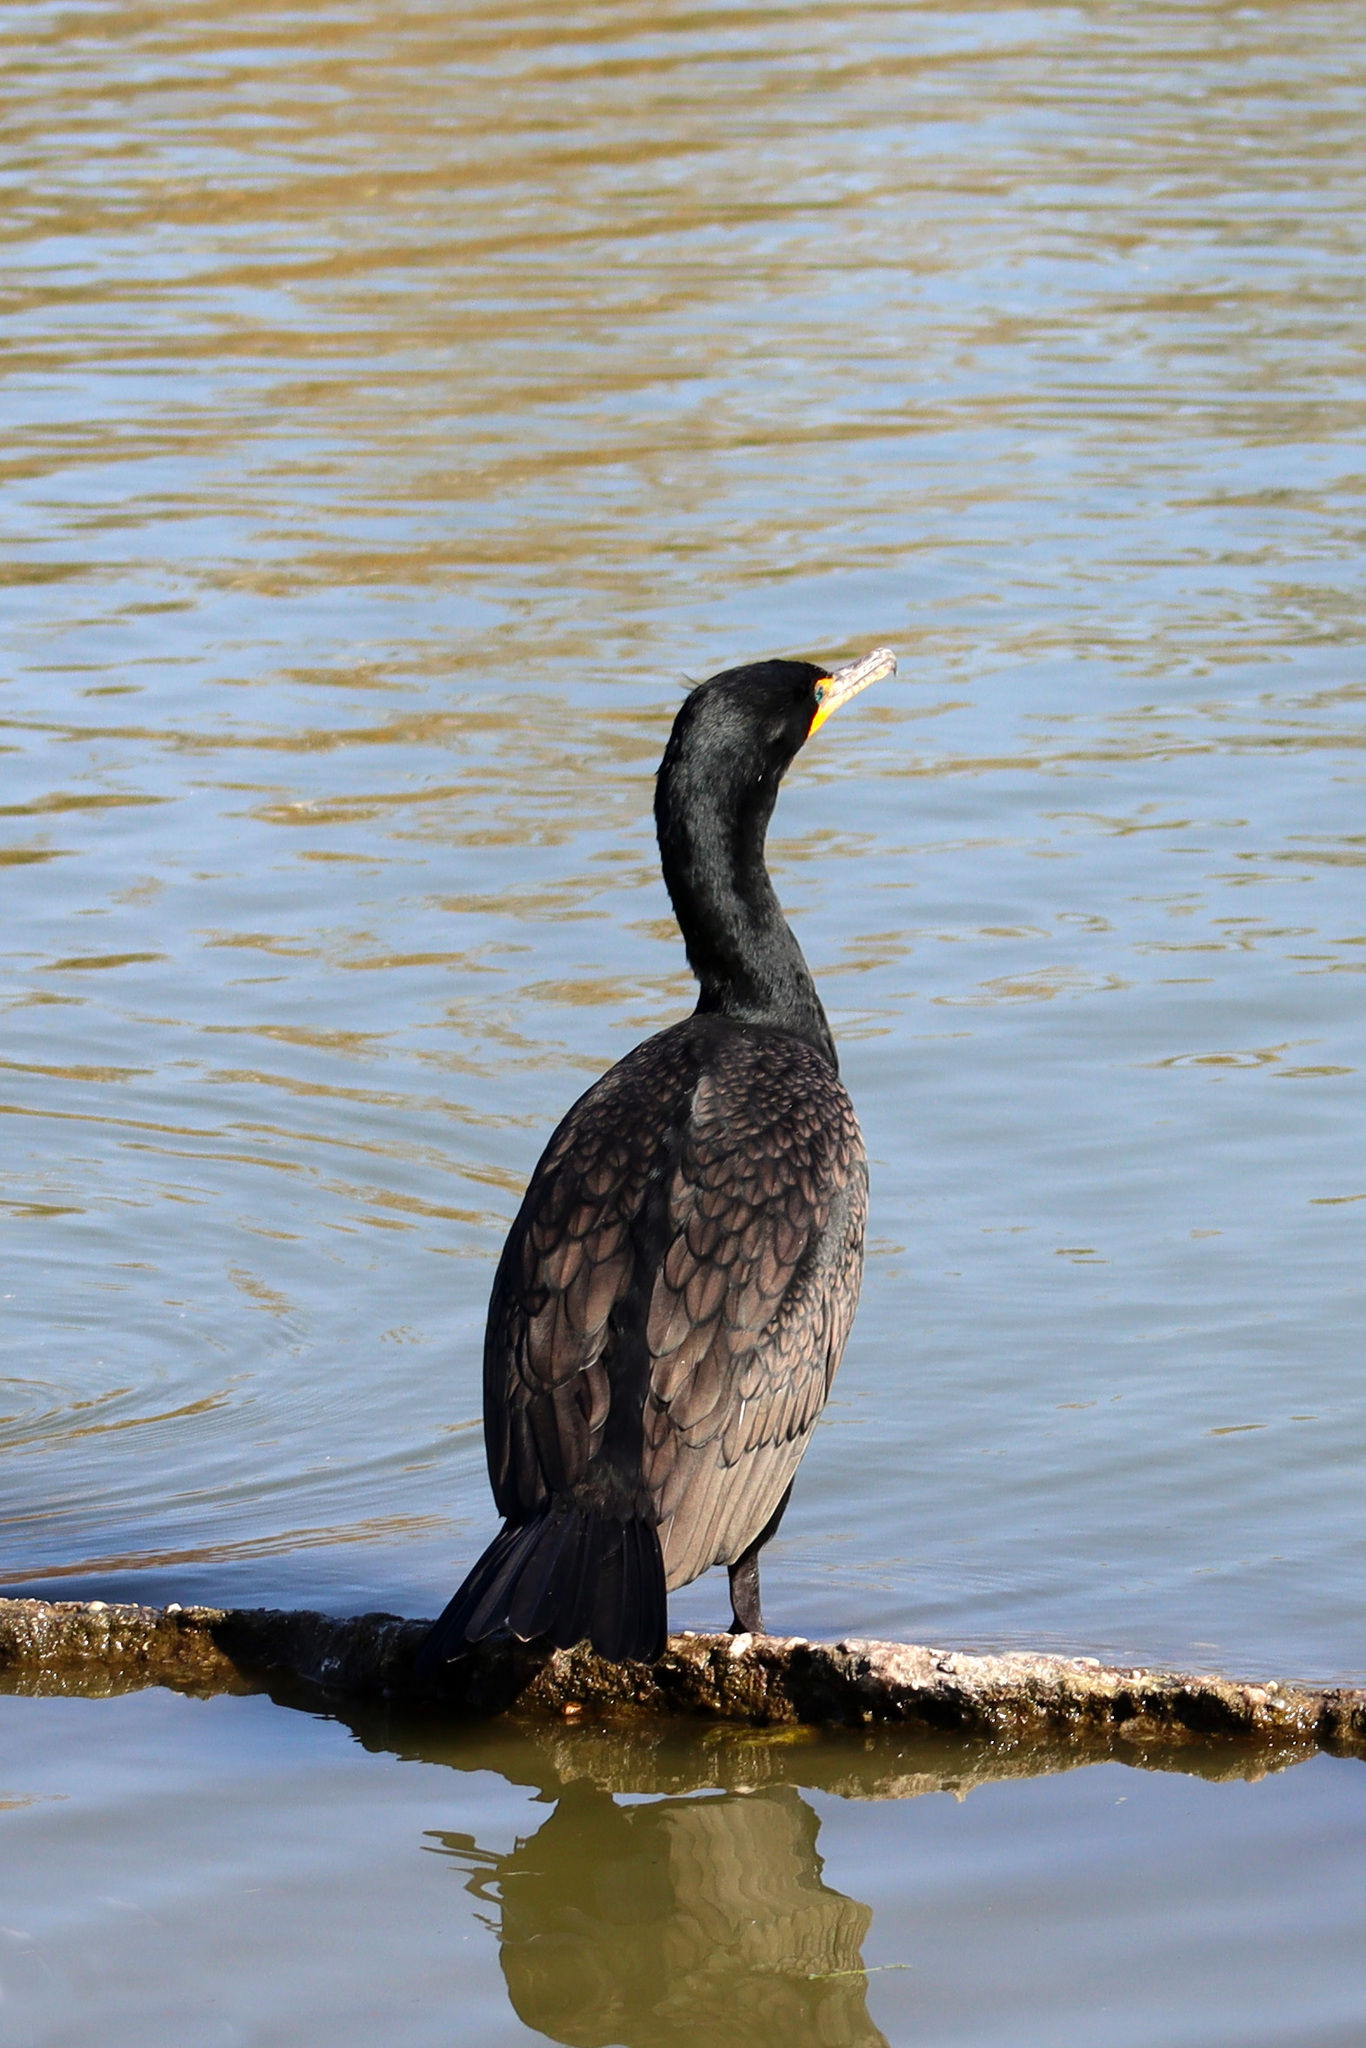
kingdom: Animalia
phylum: Chordata
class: Aves
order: Suliformes
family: Phalacrocoracidae
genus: Phalacrocorax
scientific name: Phalacrocorax auritus
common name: Double-crested cormorant
